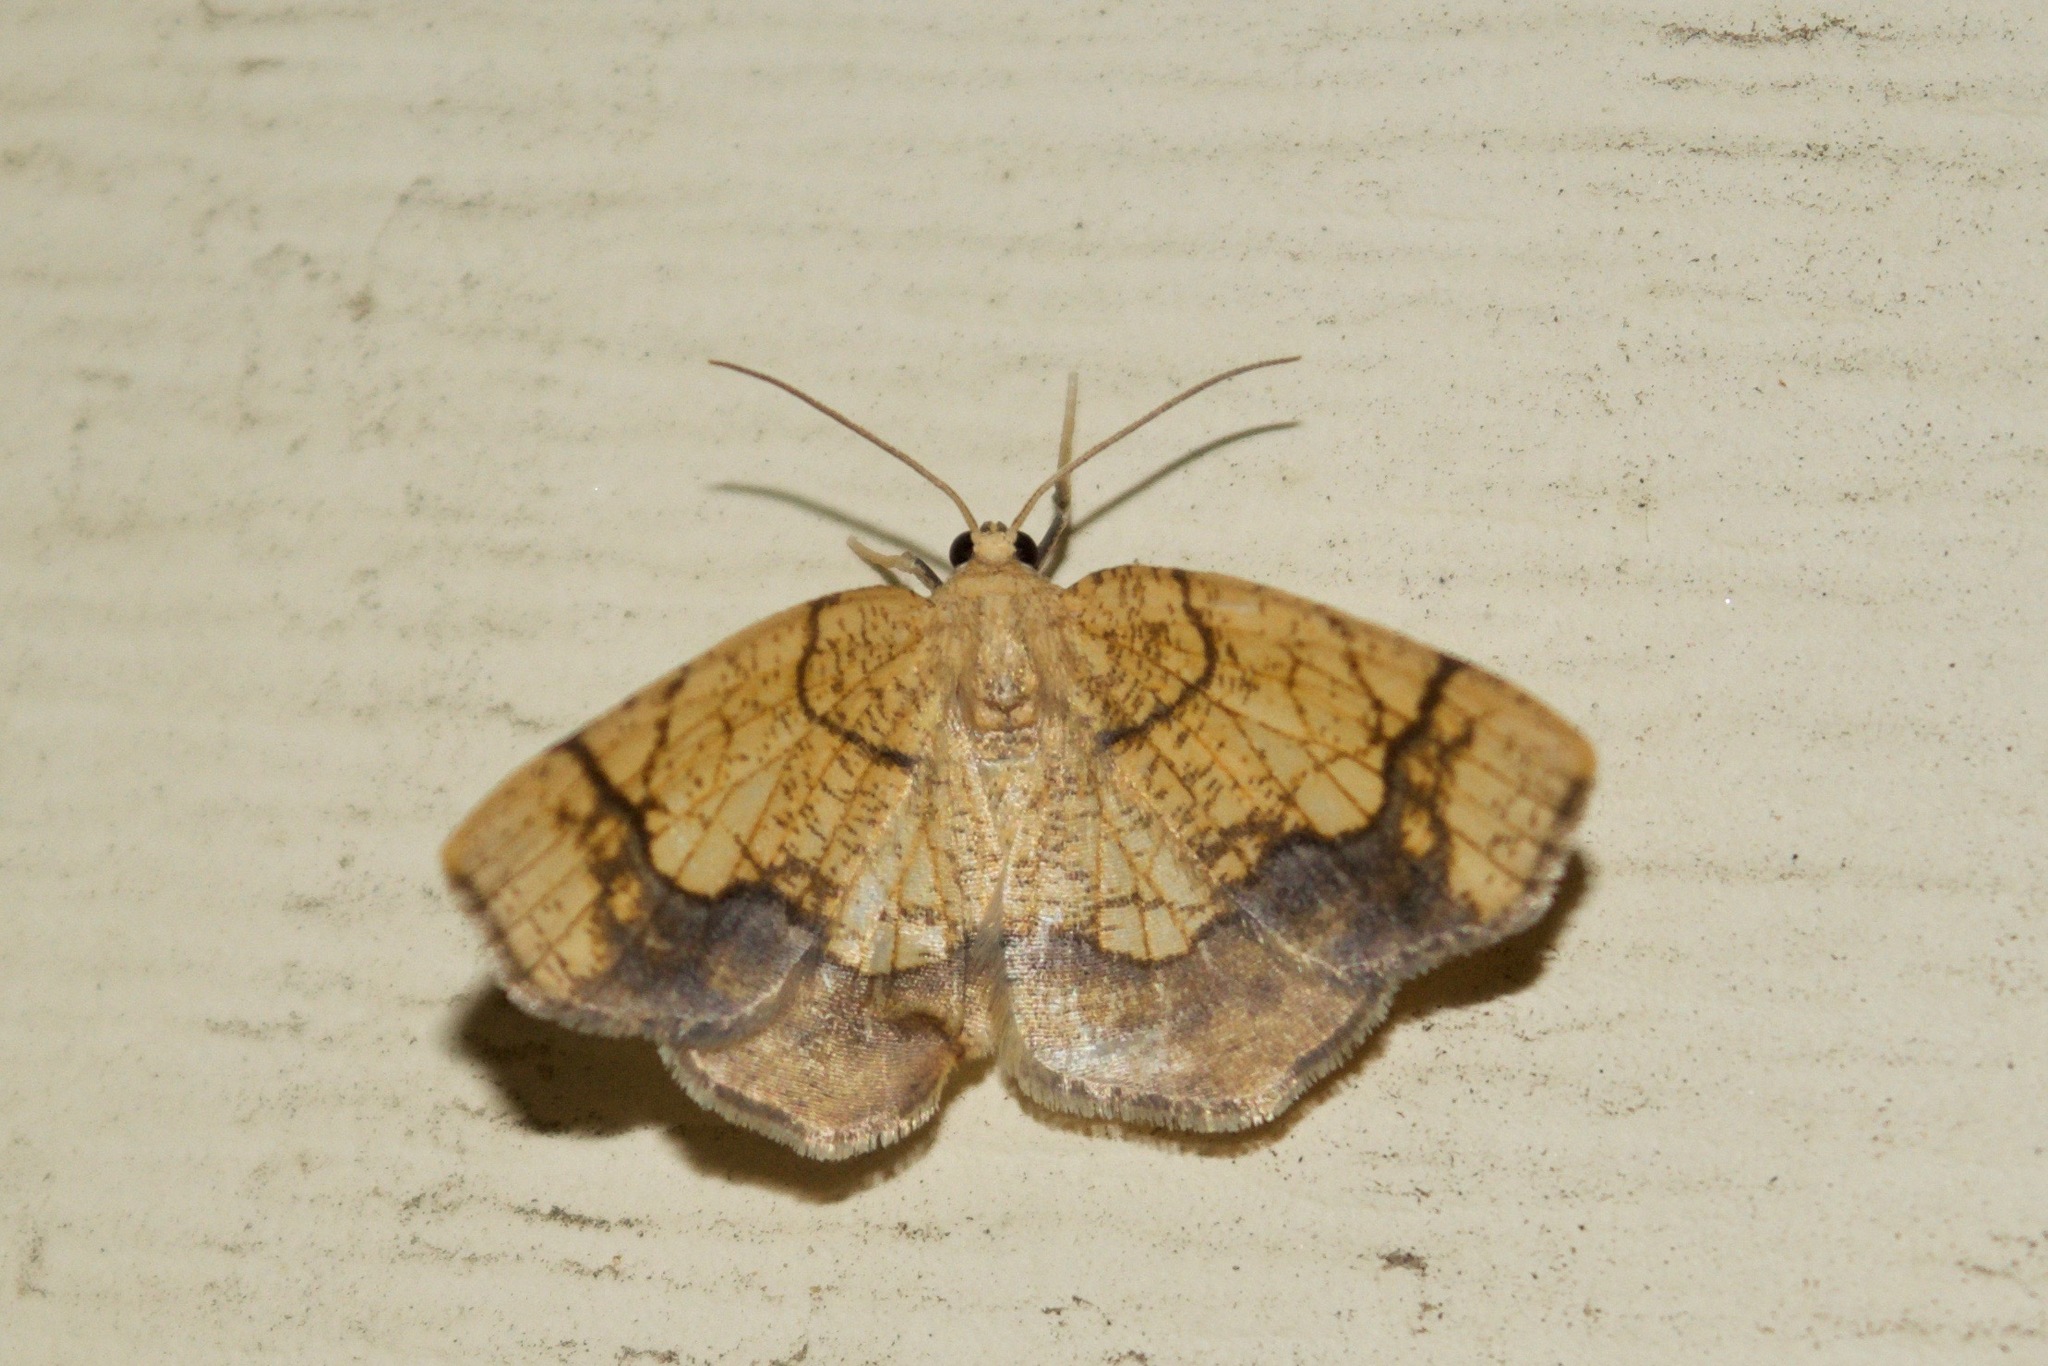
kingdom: Animalia
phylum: Arthropoda
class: Insecta
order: Lepidoptera
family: Geometridae
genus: Nematocampa
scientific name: Nematocampa resistaria
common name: Horned spanworm moth
